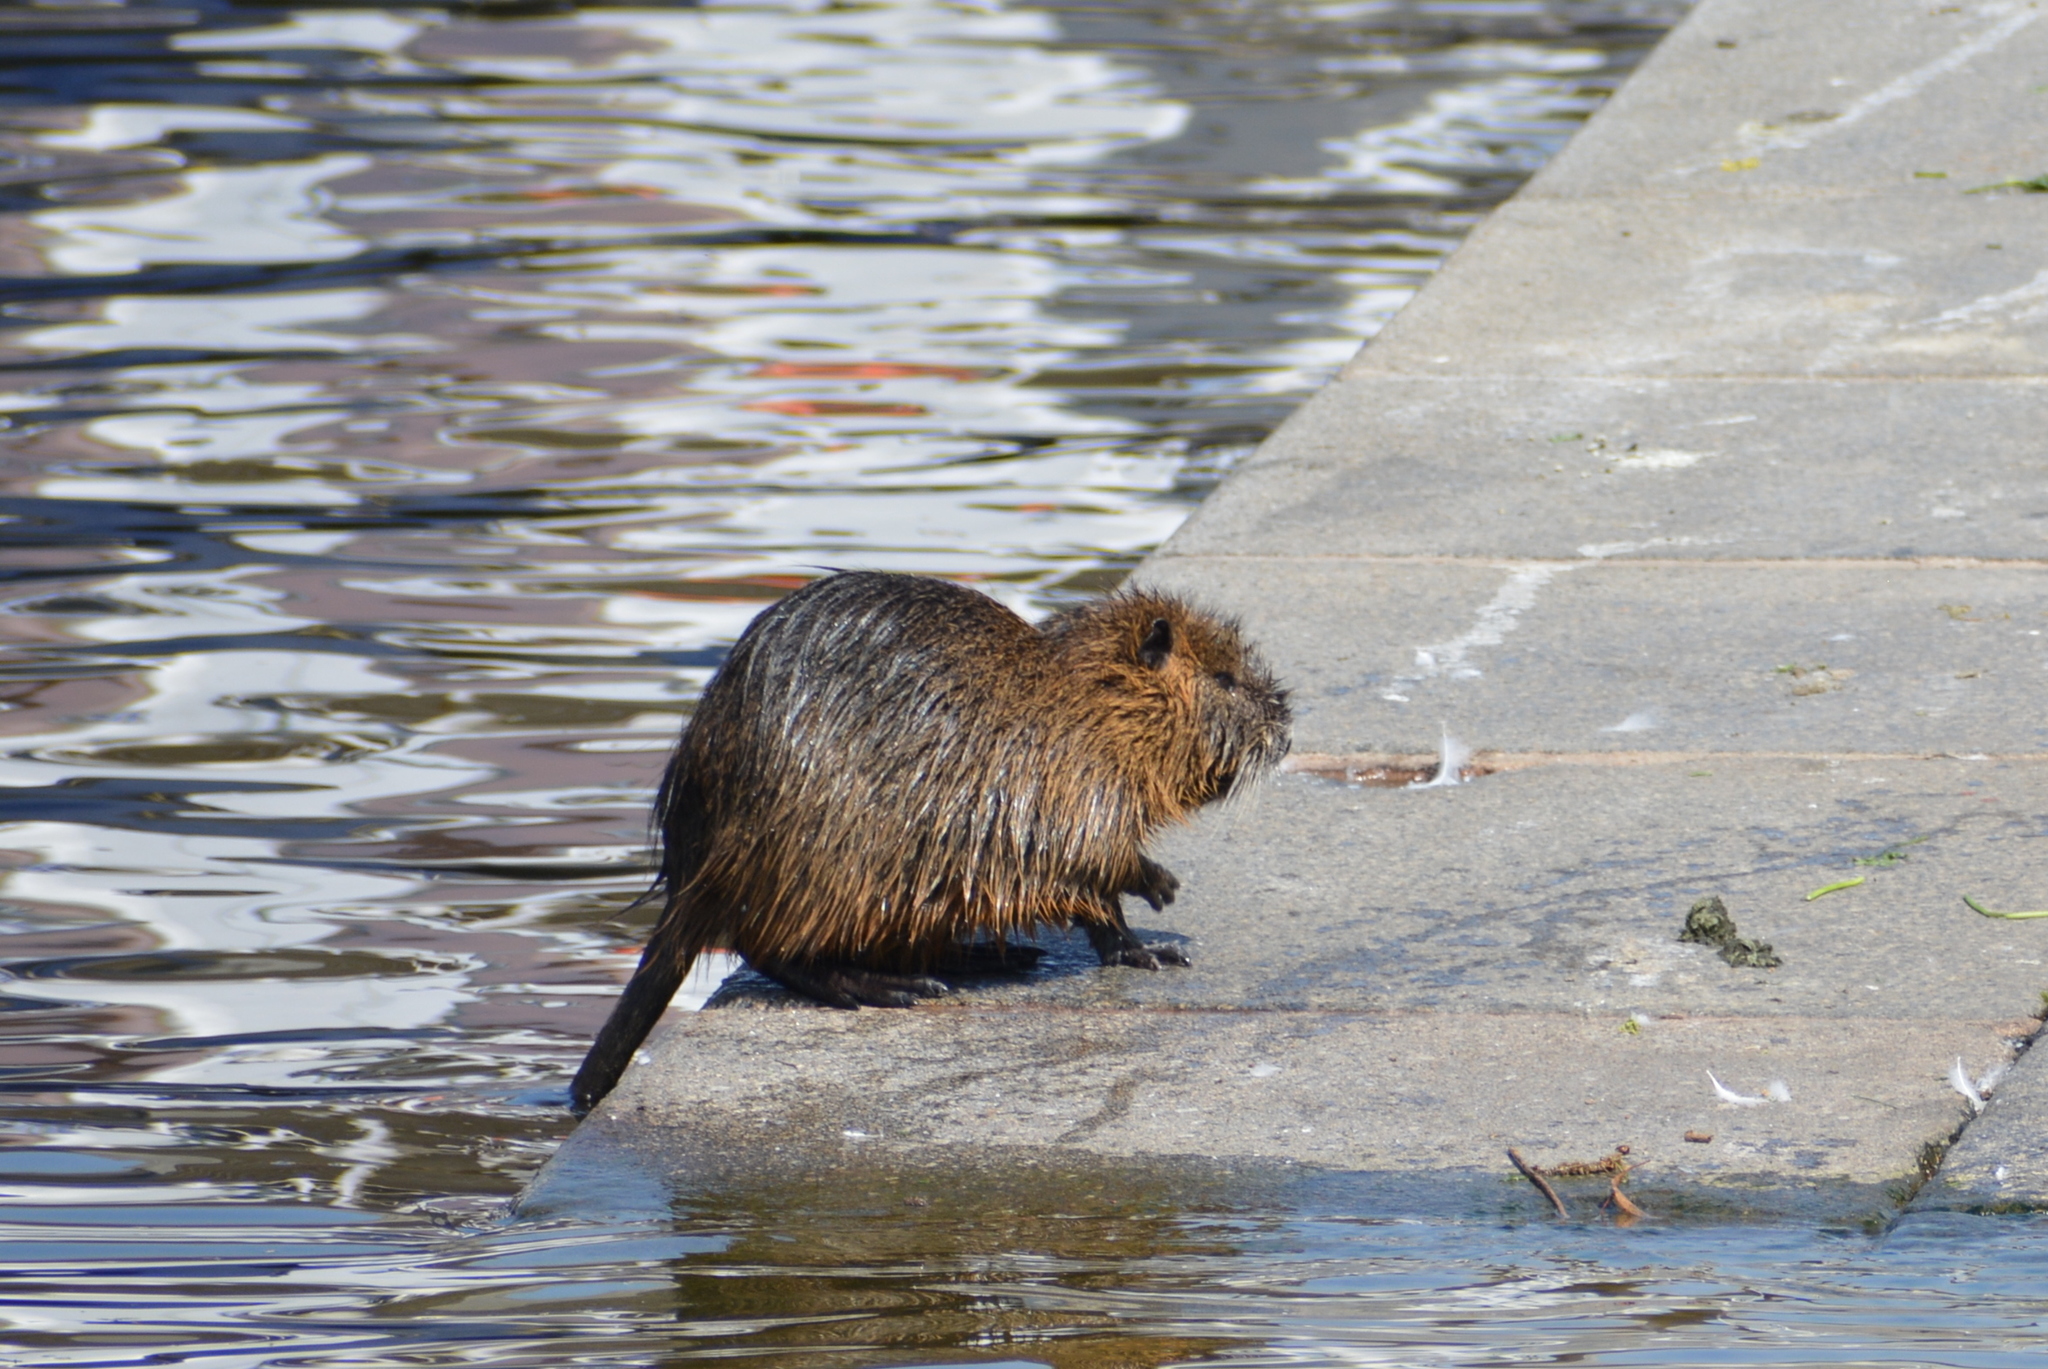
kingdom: Animalia
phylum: Chordata
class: Mammalia
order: Rodentia
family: Myocastoridae
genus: Myocastor
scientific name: Myocastor coypus
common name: Coypu
